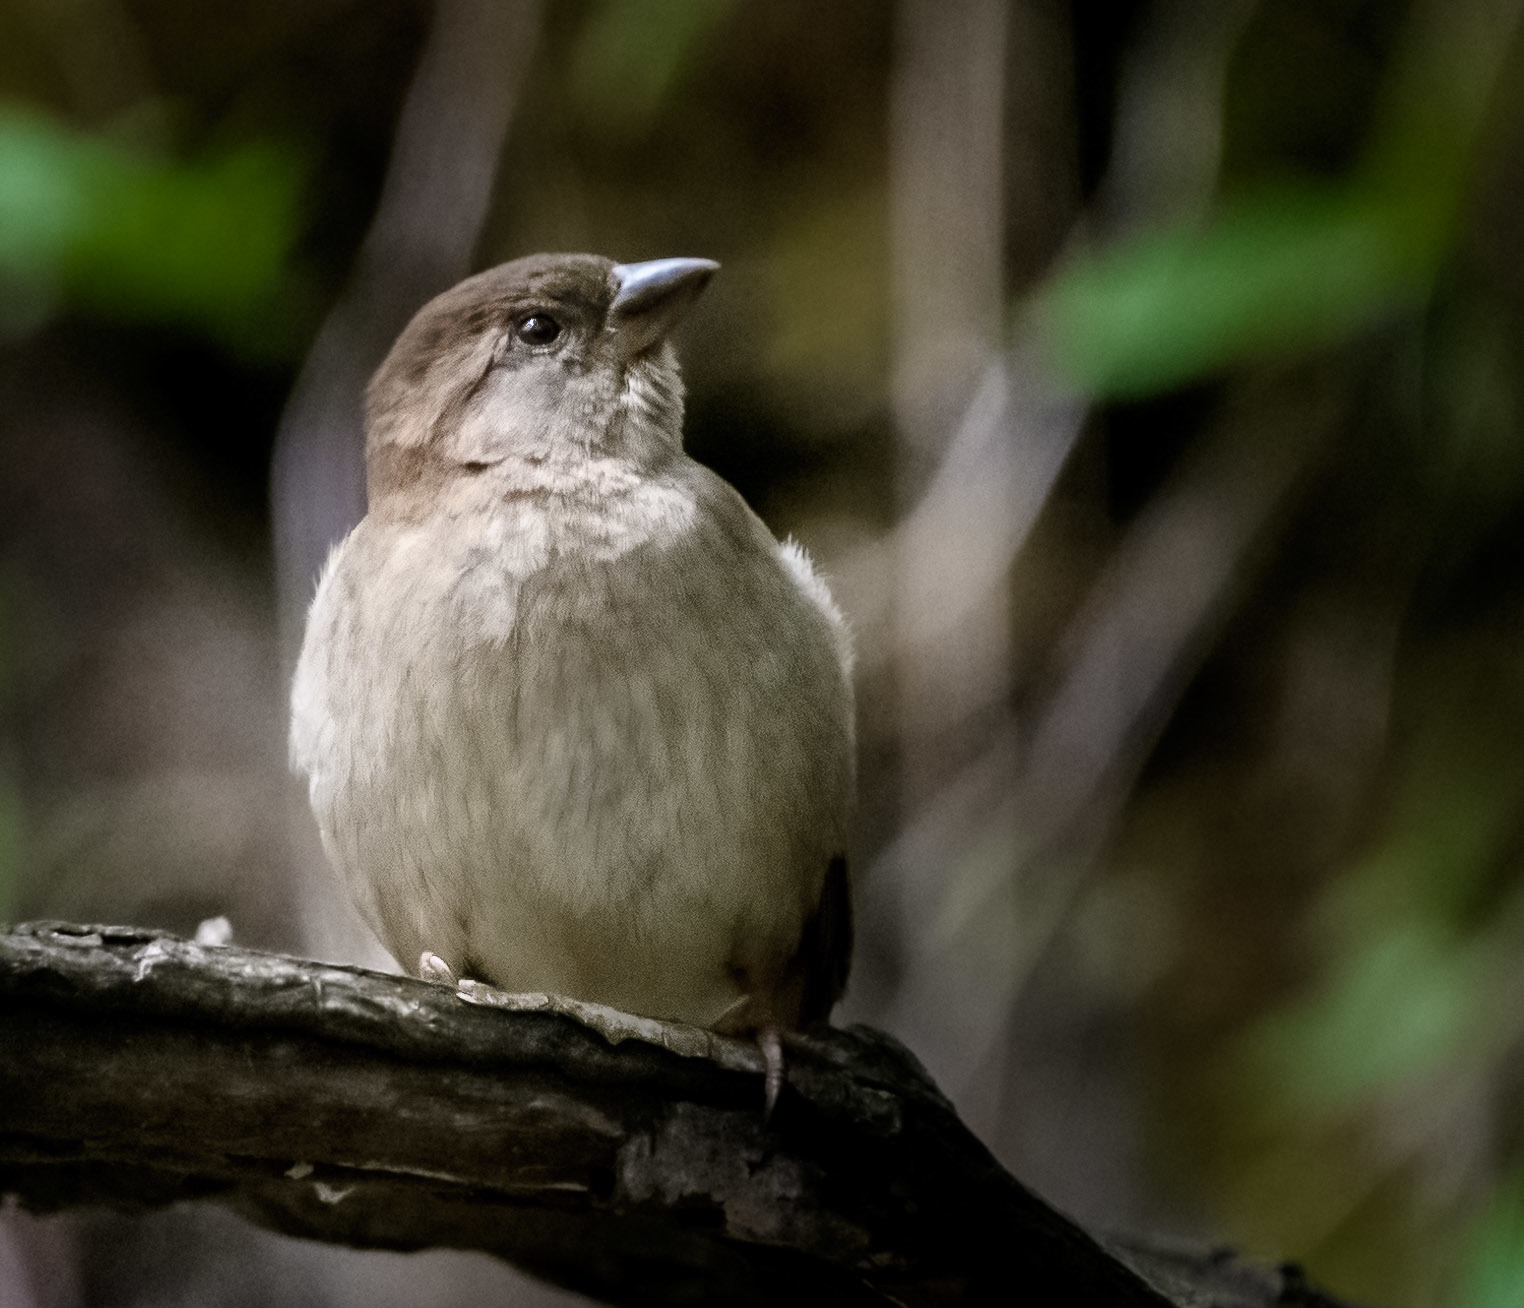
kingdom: Animalia
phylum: Chordata
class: Aves
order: Passeriformes
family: Passeridae
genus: Passer
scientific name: Passer domesticus
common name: House sparrow
